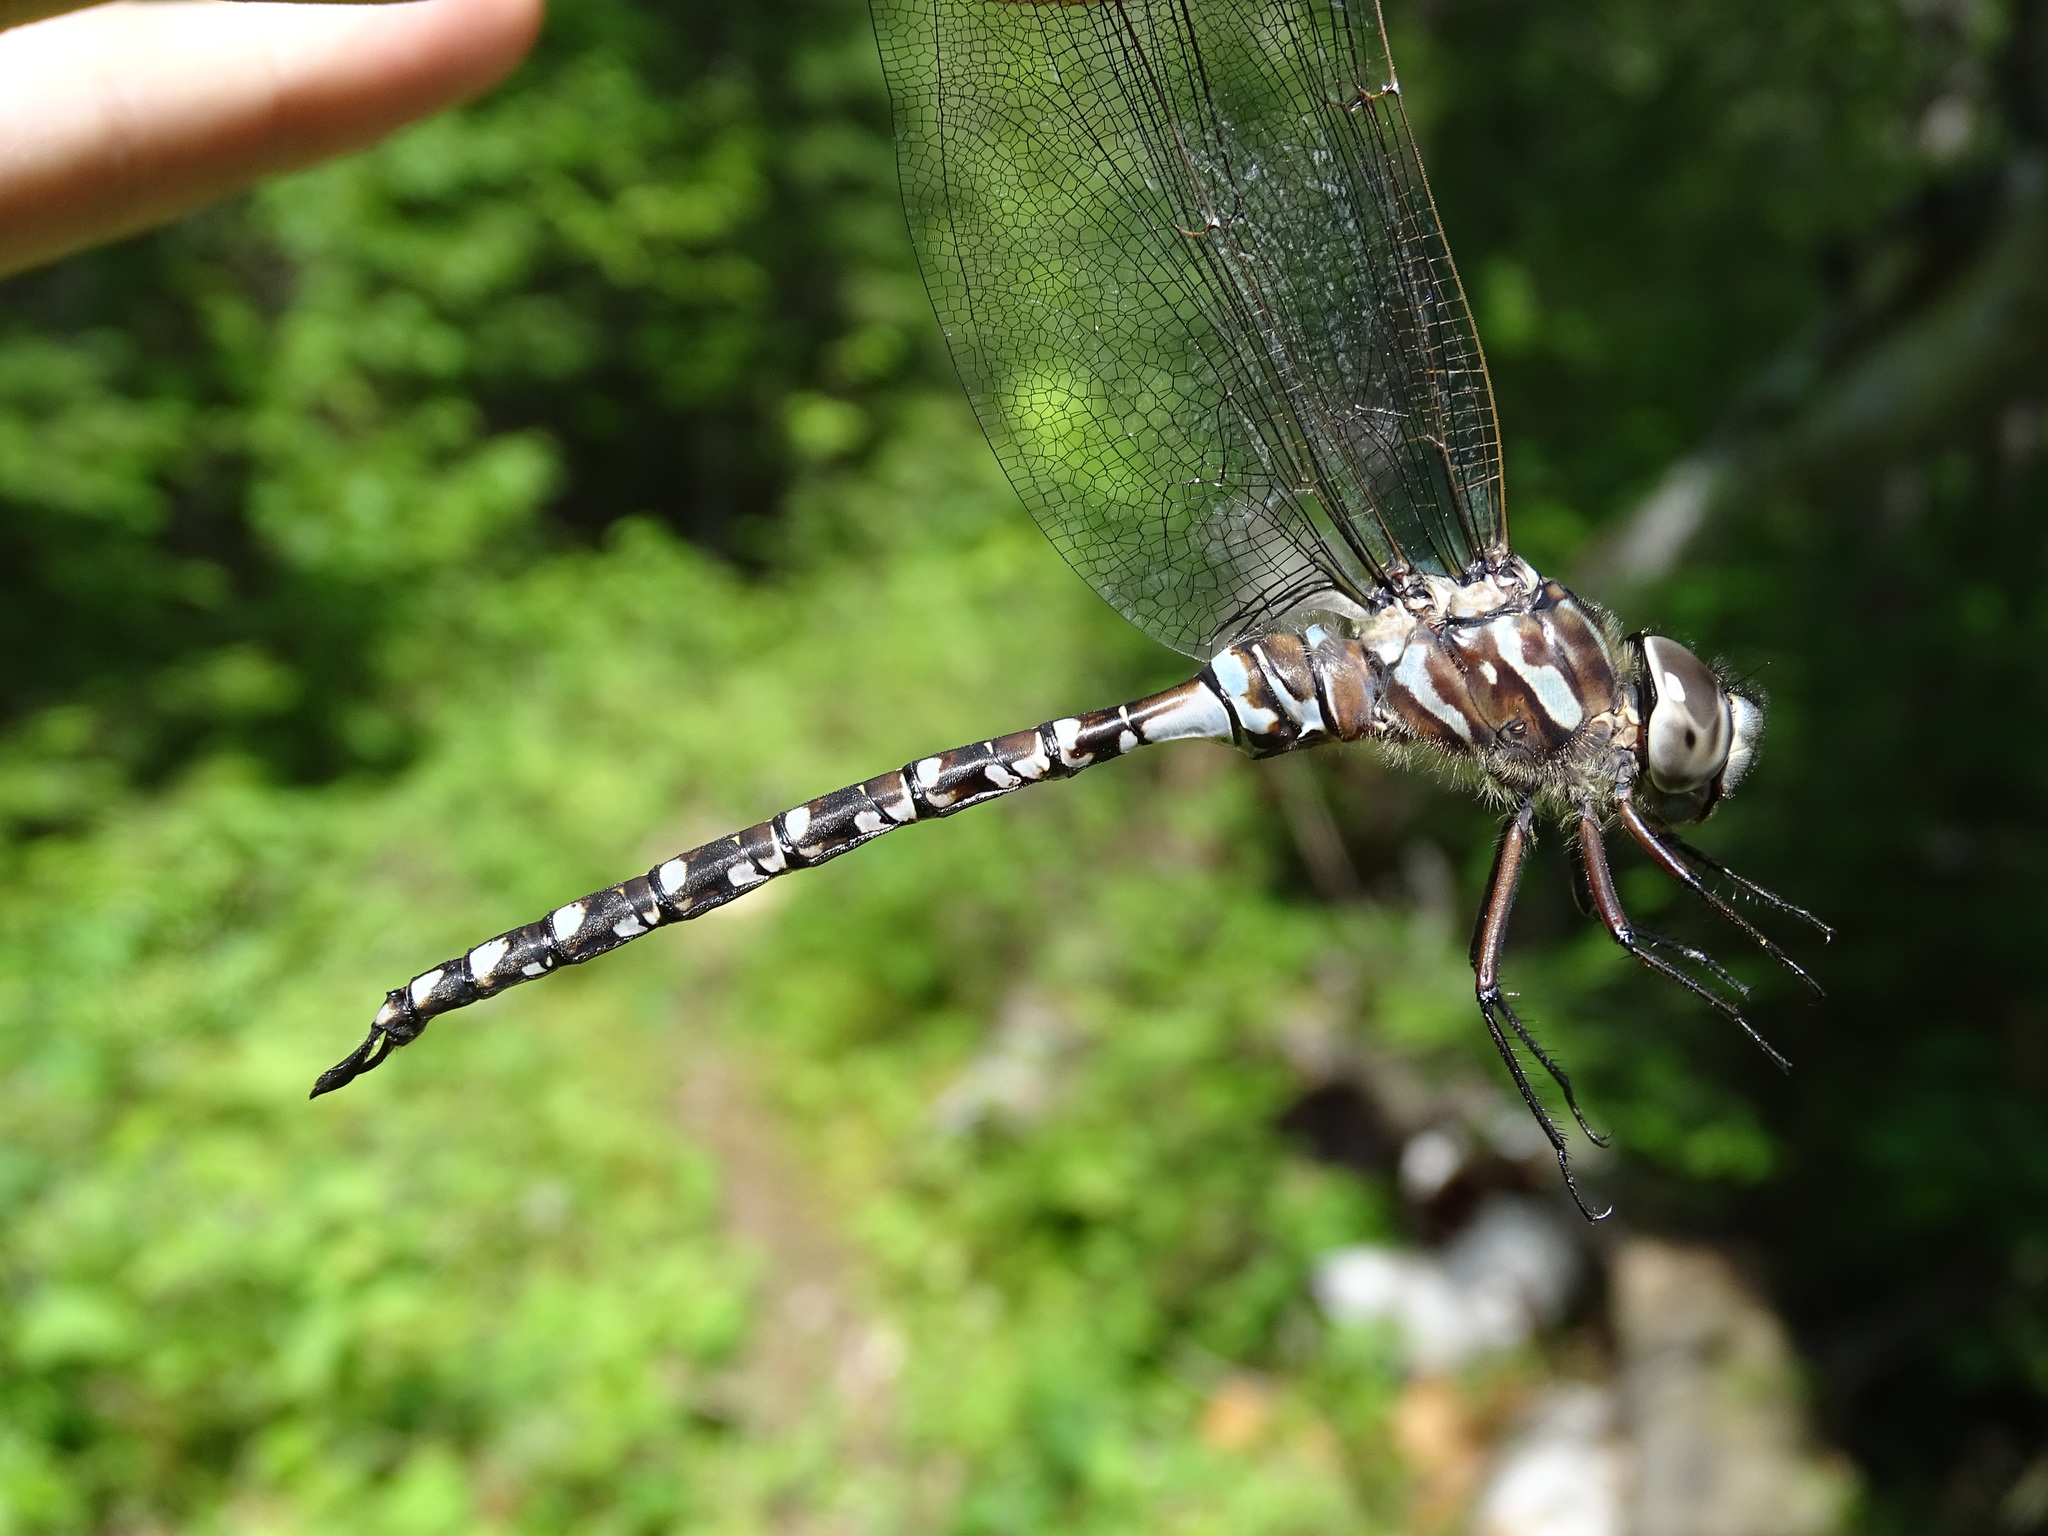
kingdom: Animalia
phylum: Arthropoda
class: Insecta
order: Odonata
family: Aeshnidae
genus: Aeshna
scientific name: Aeshna canadensis
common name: Canada darner
